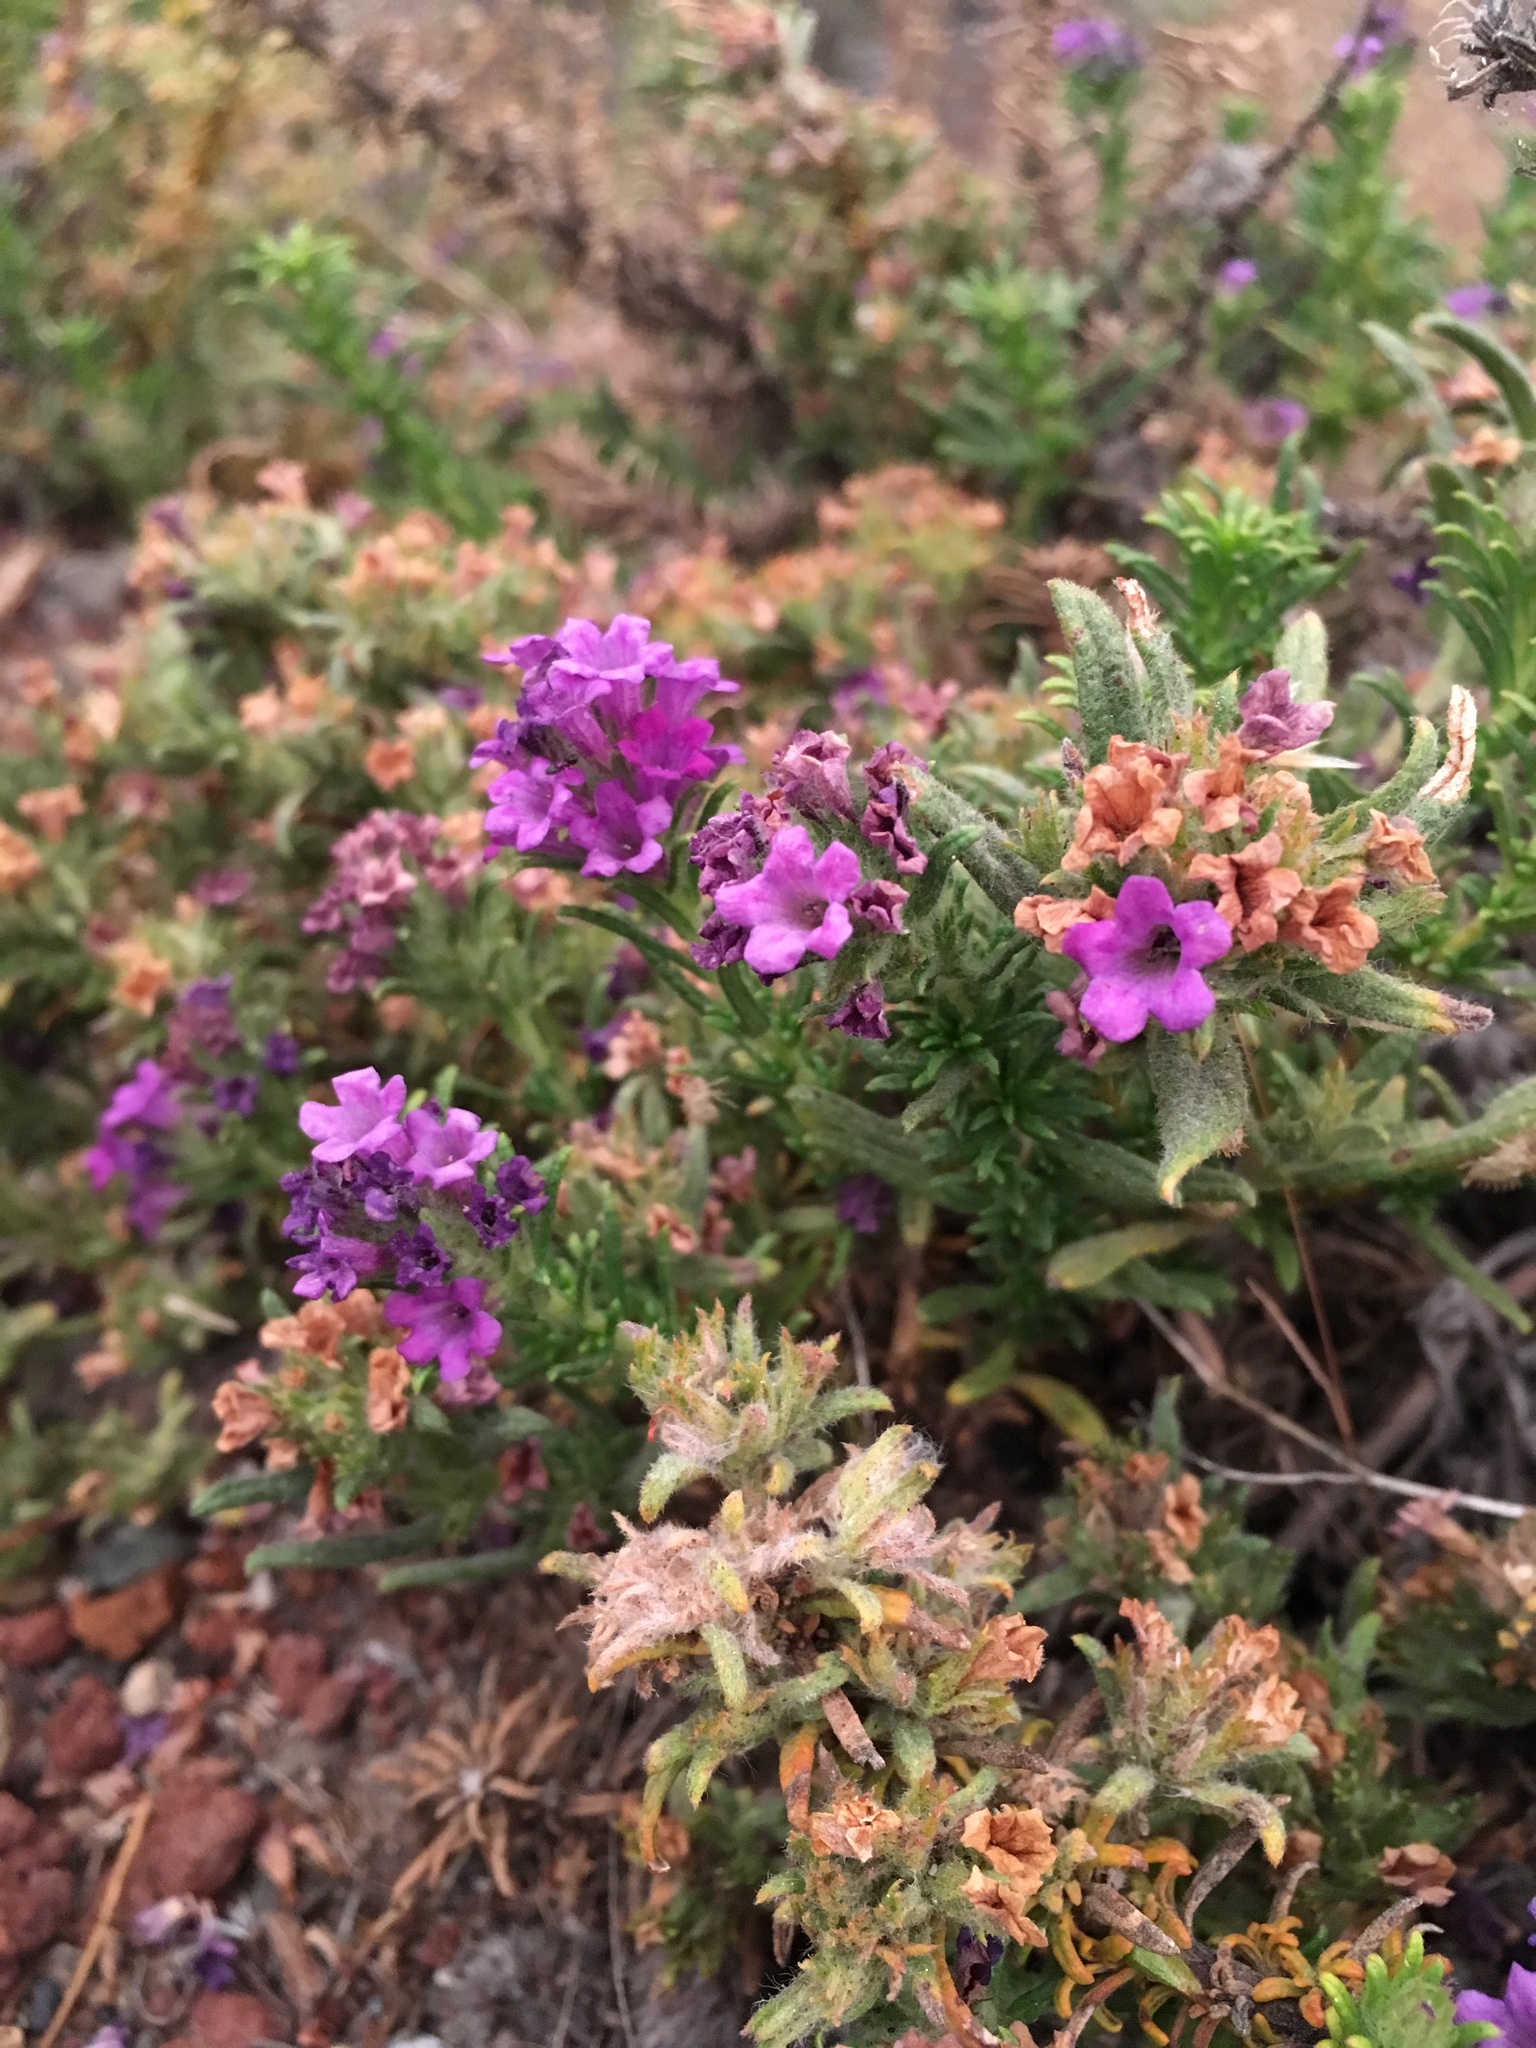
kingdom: Plantae
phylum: Tracheophyta
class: Magnoliopsida
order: Boraginales
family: Namaceae
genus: Nama
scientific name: Nama lobbii
